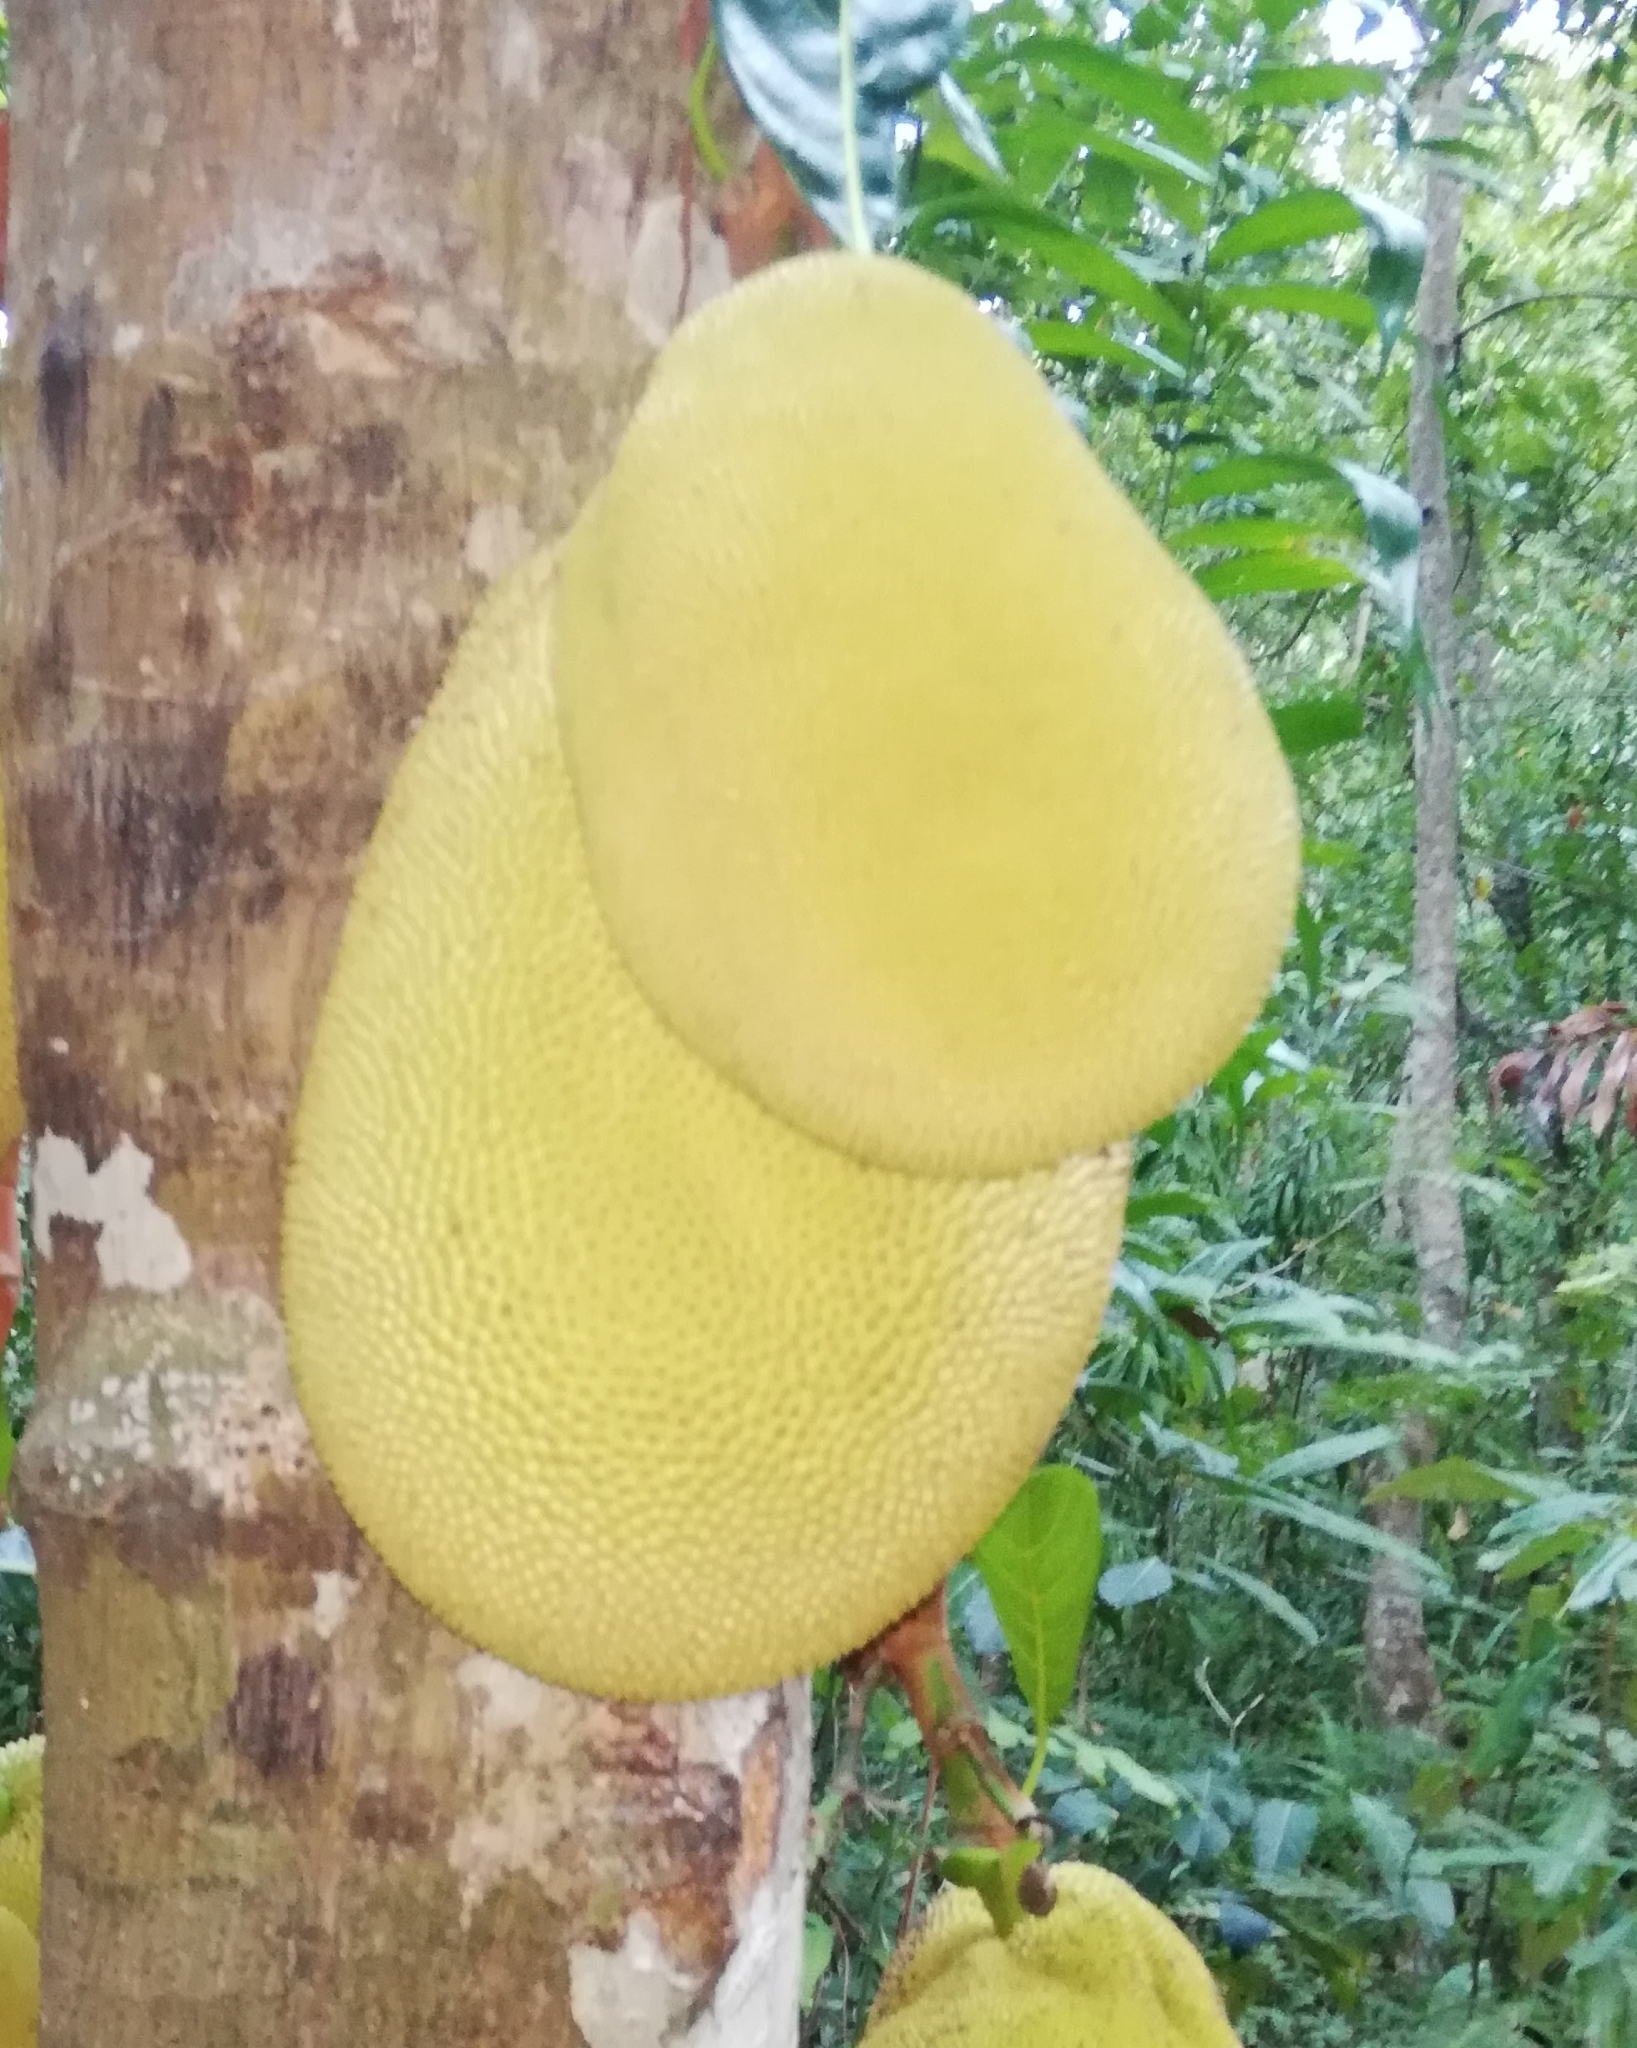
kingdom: Plantae
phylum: Tracheophyta
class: Magnoliopsida
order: Rosales
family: Moraceae
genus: Artocarpus
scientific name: Artocarpus heterophyllus
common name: Jackfruit
